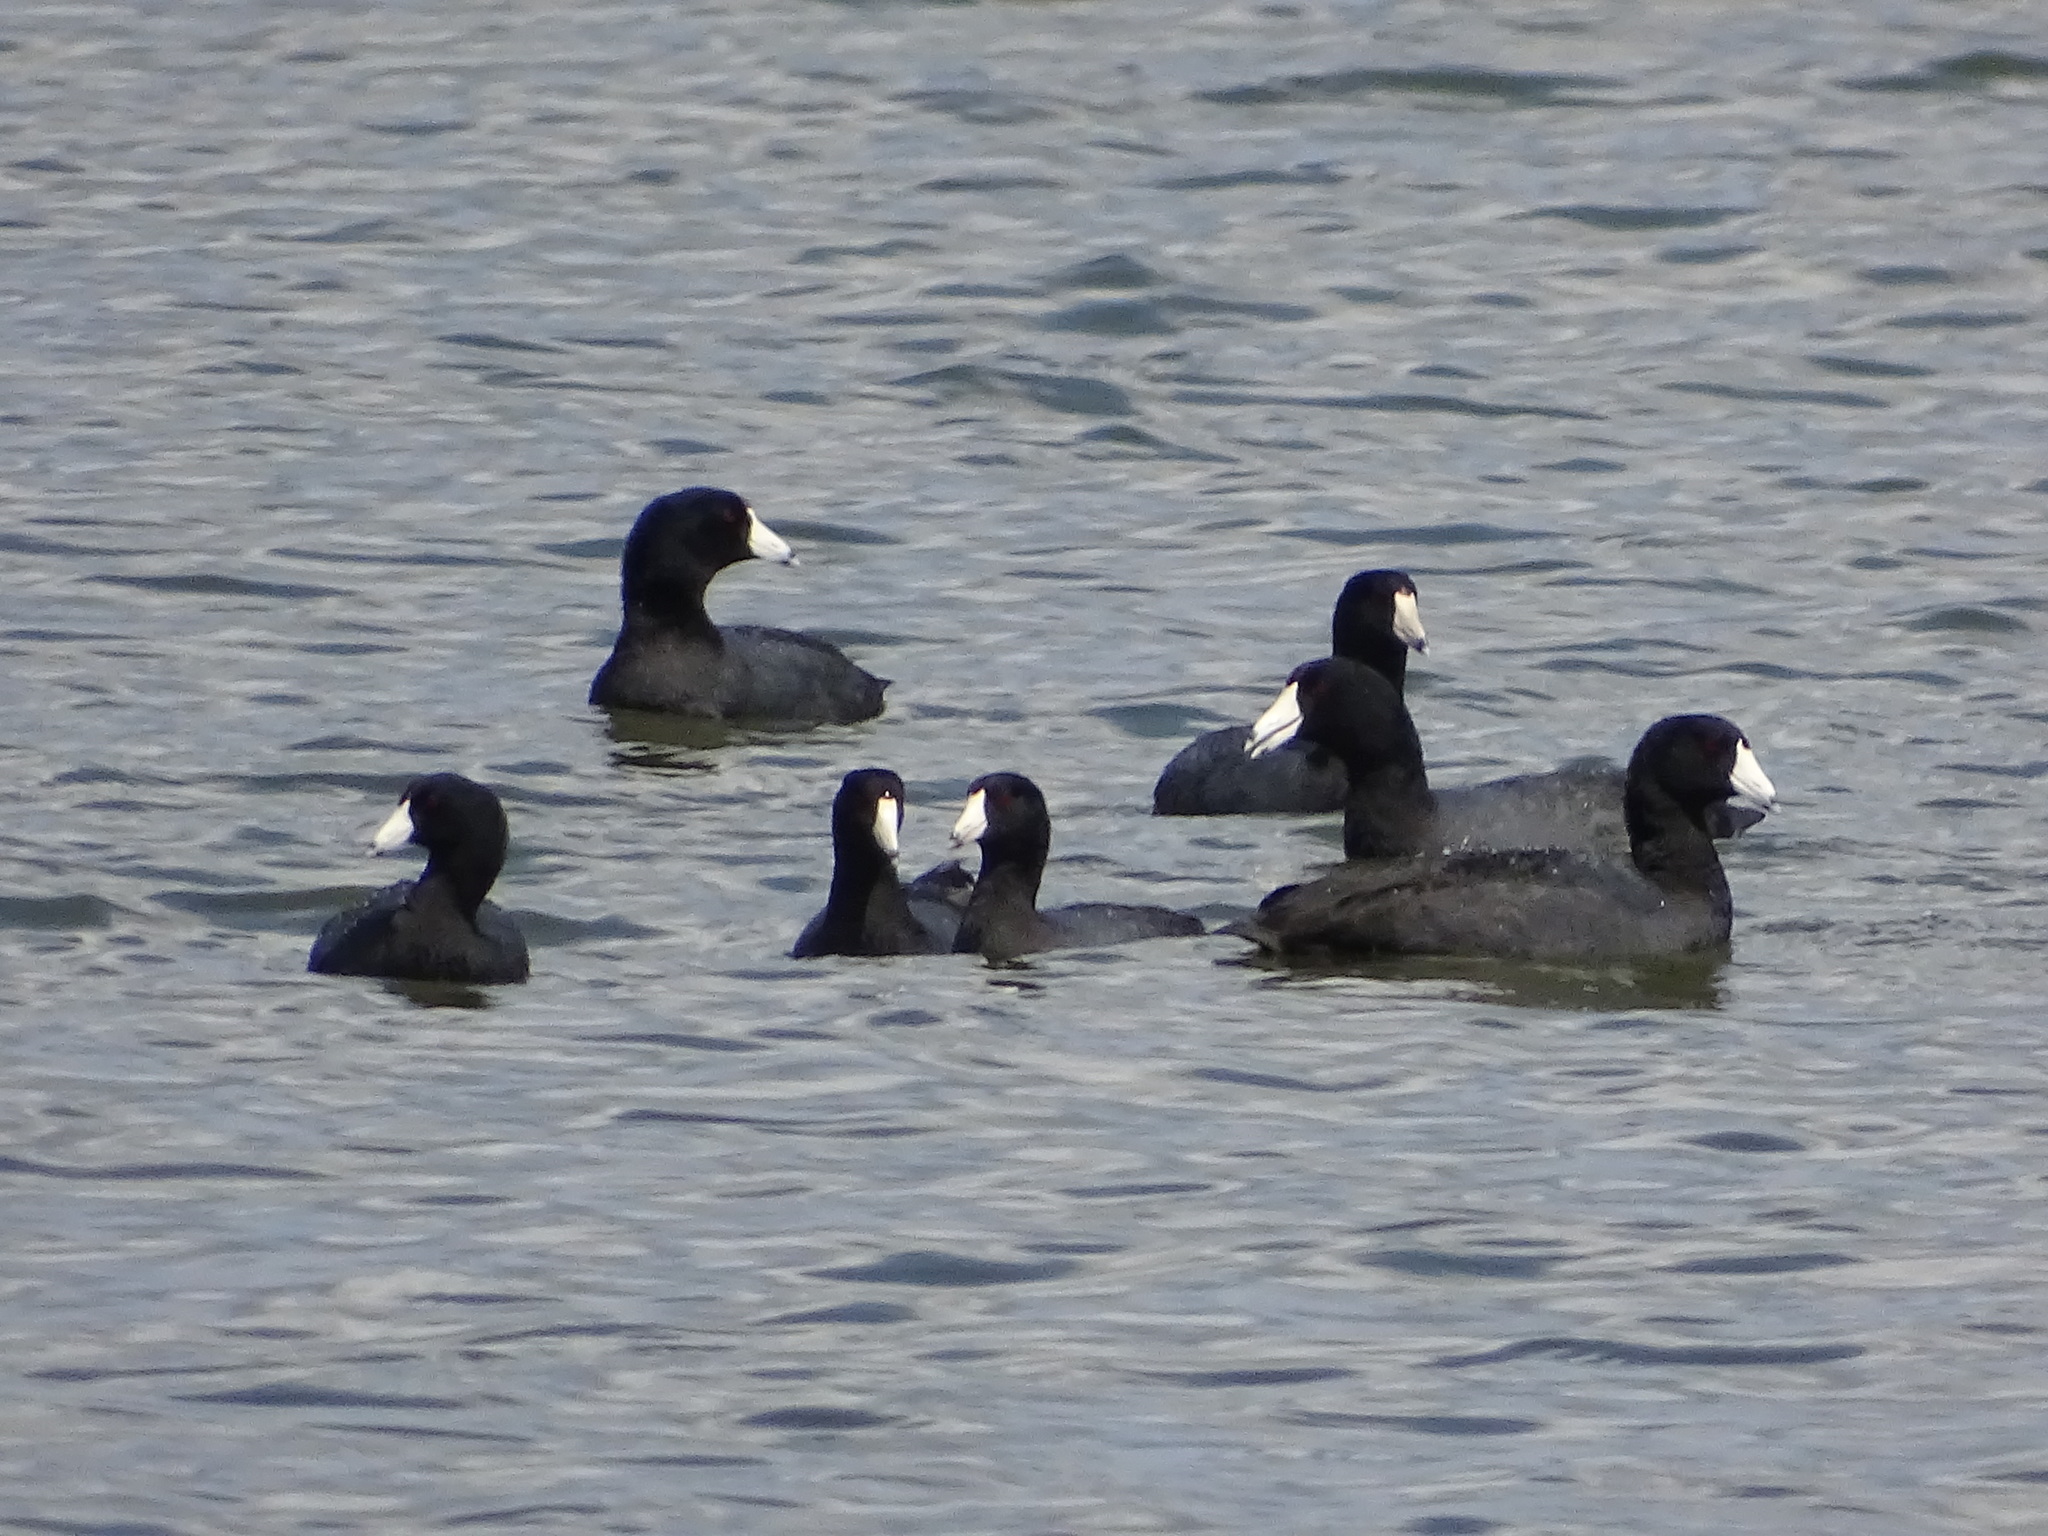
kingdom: Animalia
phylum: Chordata
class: Aves
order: Gruiformes
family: Rallidae
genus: Fulica
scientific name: Fulica americana
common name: American coot
